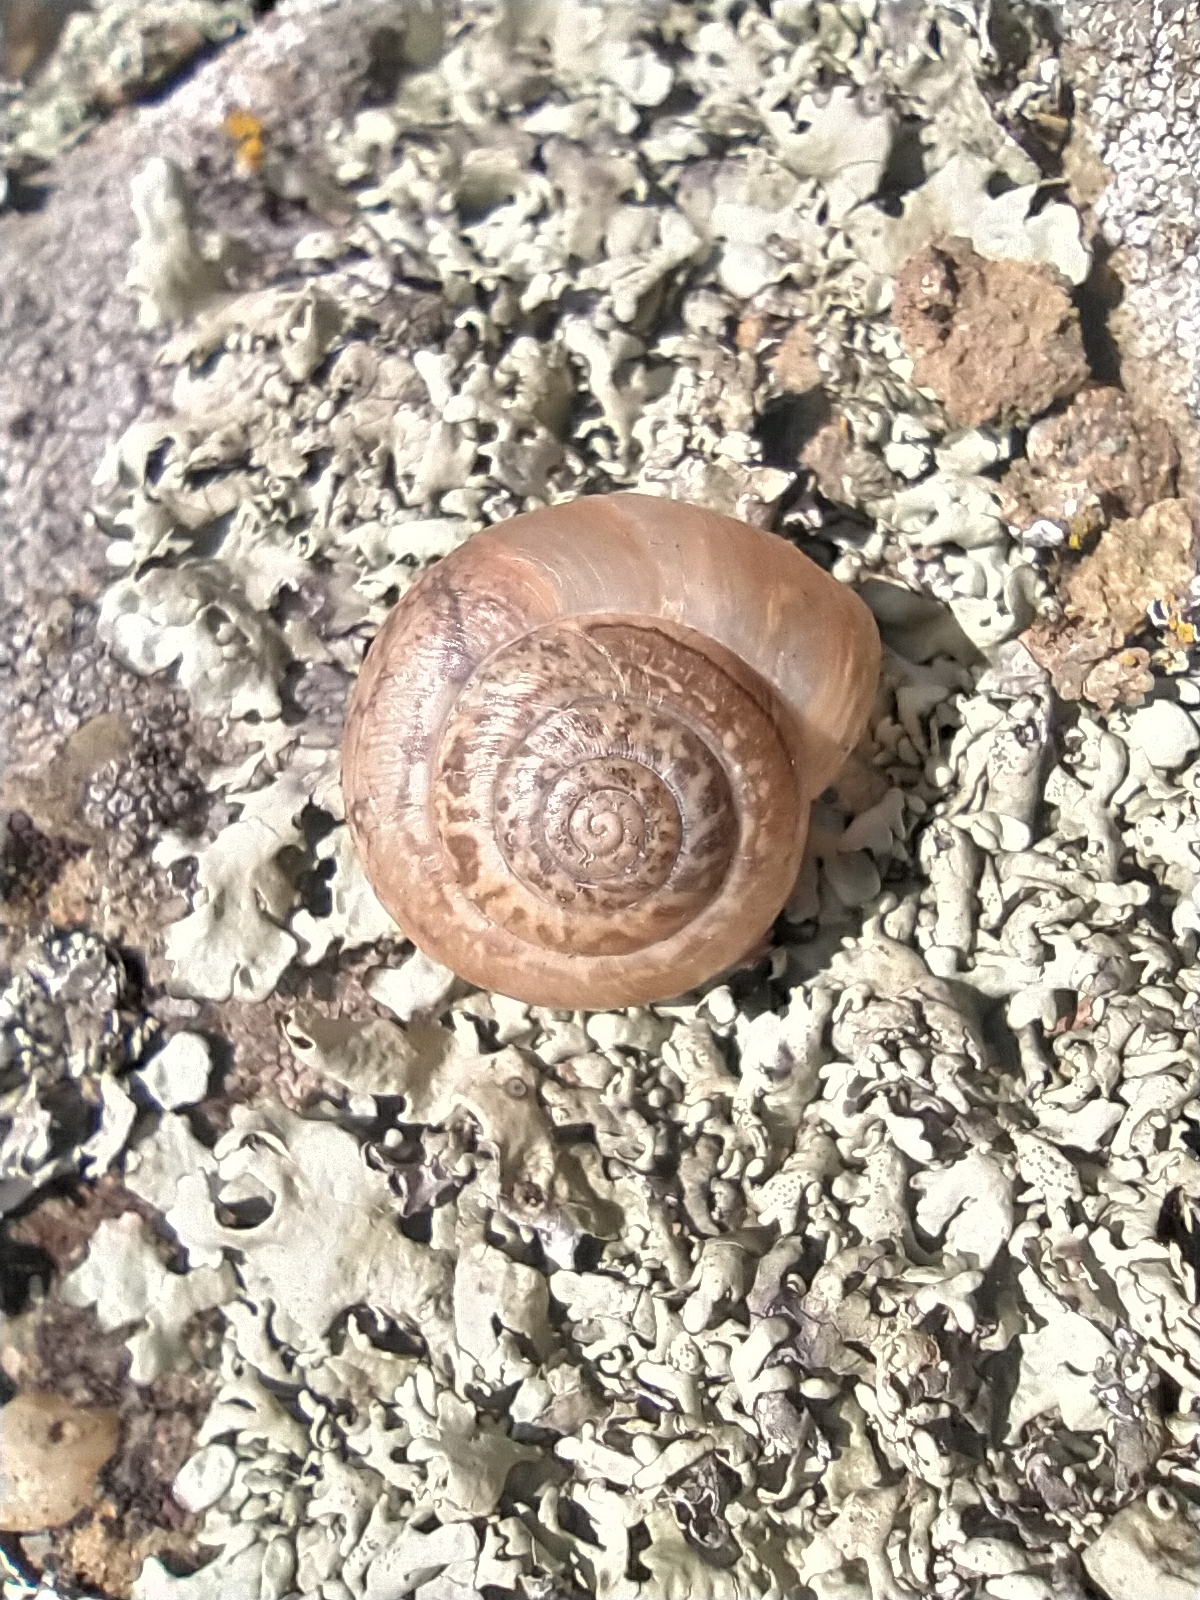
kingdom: Animalia
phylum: Mollusca
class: Gastropoda
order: Stylommatophora
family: Hygromiidae
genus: Monacha
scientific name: Monacha fruticola
